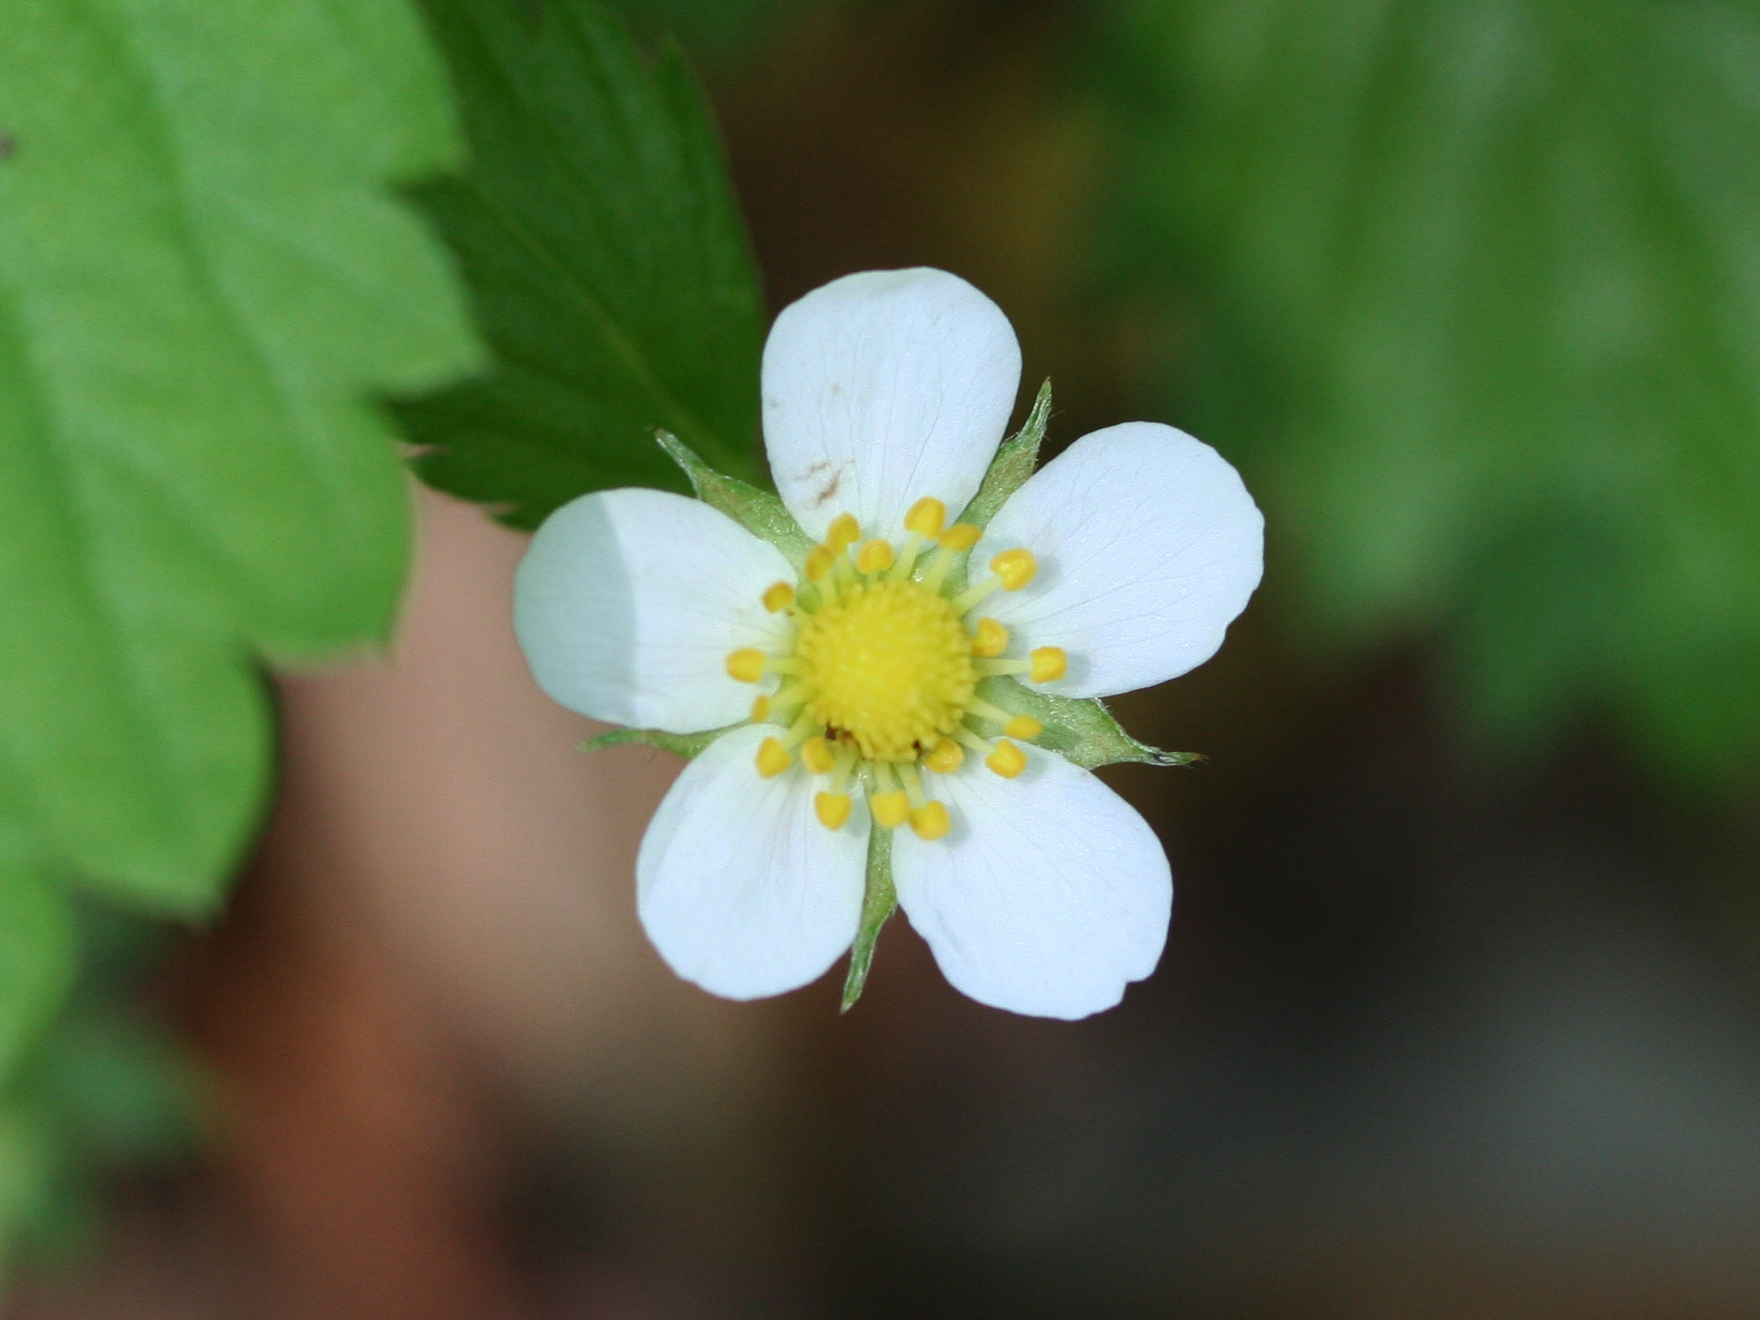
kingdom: Plantae
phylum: Tracheophyta
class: Magnoliopsida
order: Rosales
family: Rosaceae
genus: Fragaria
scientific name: Fragaria vesca
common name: Wild strawberry
